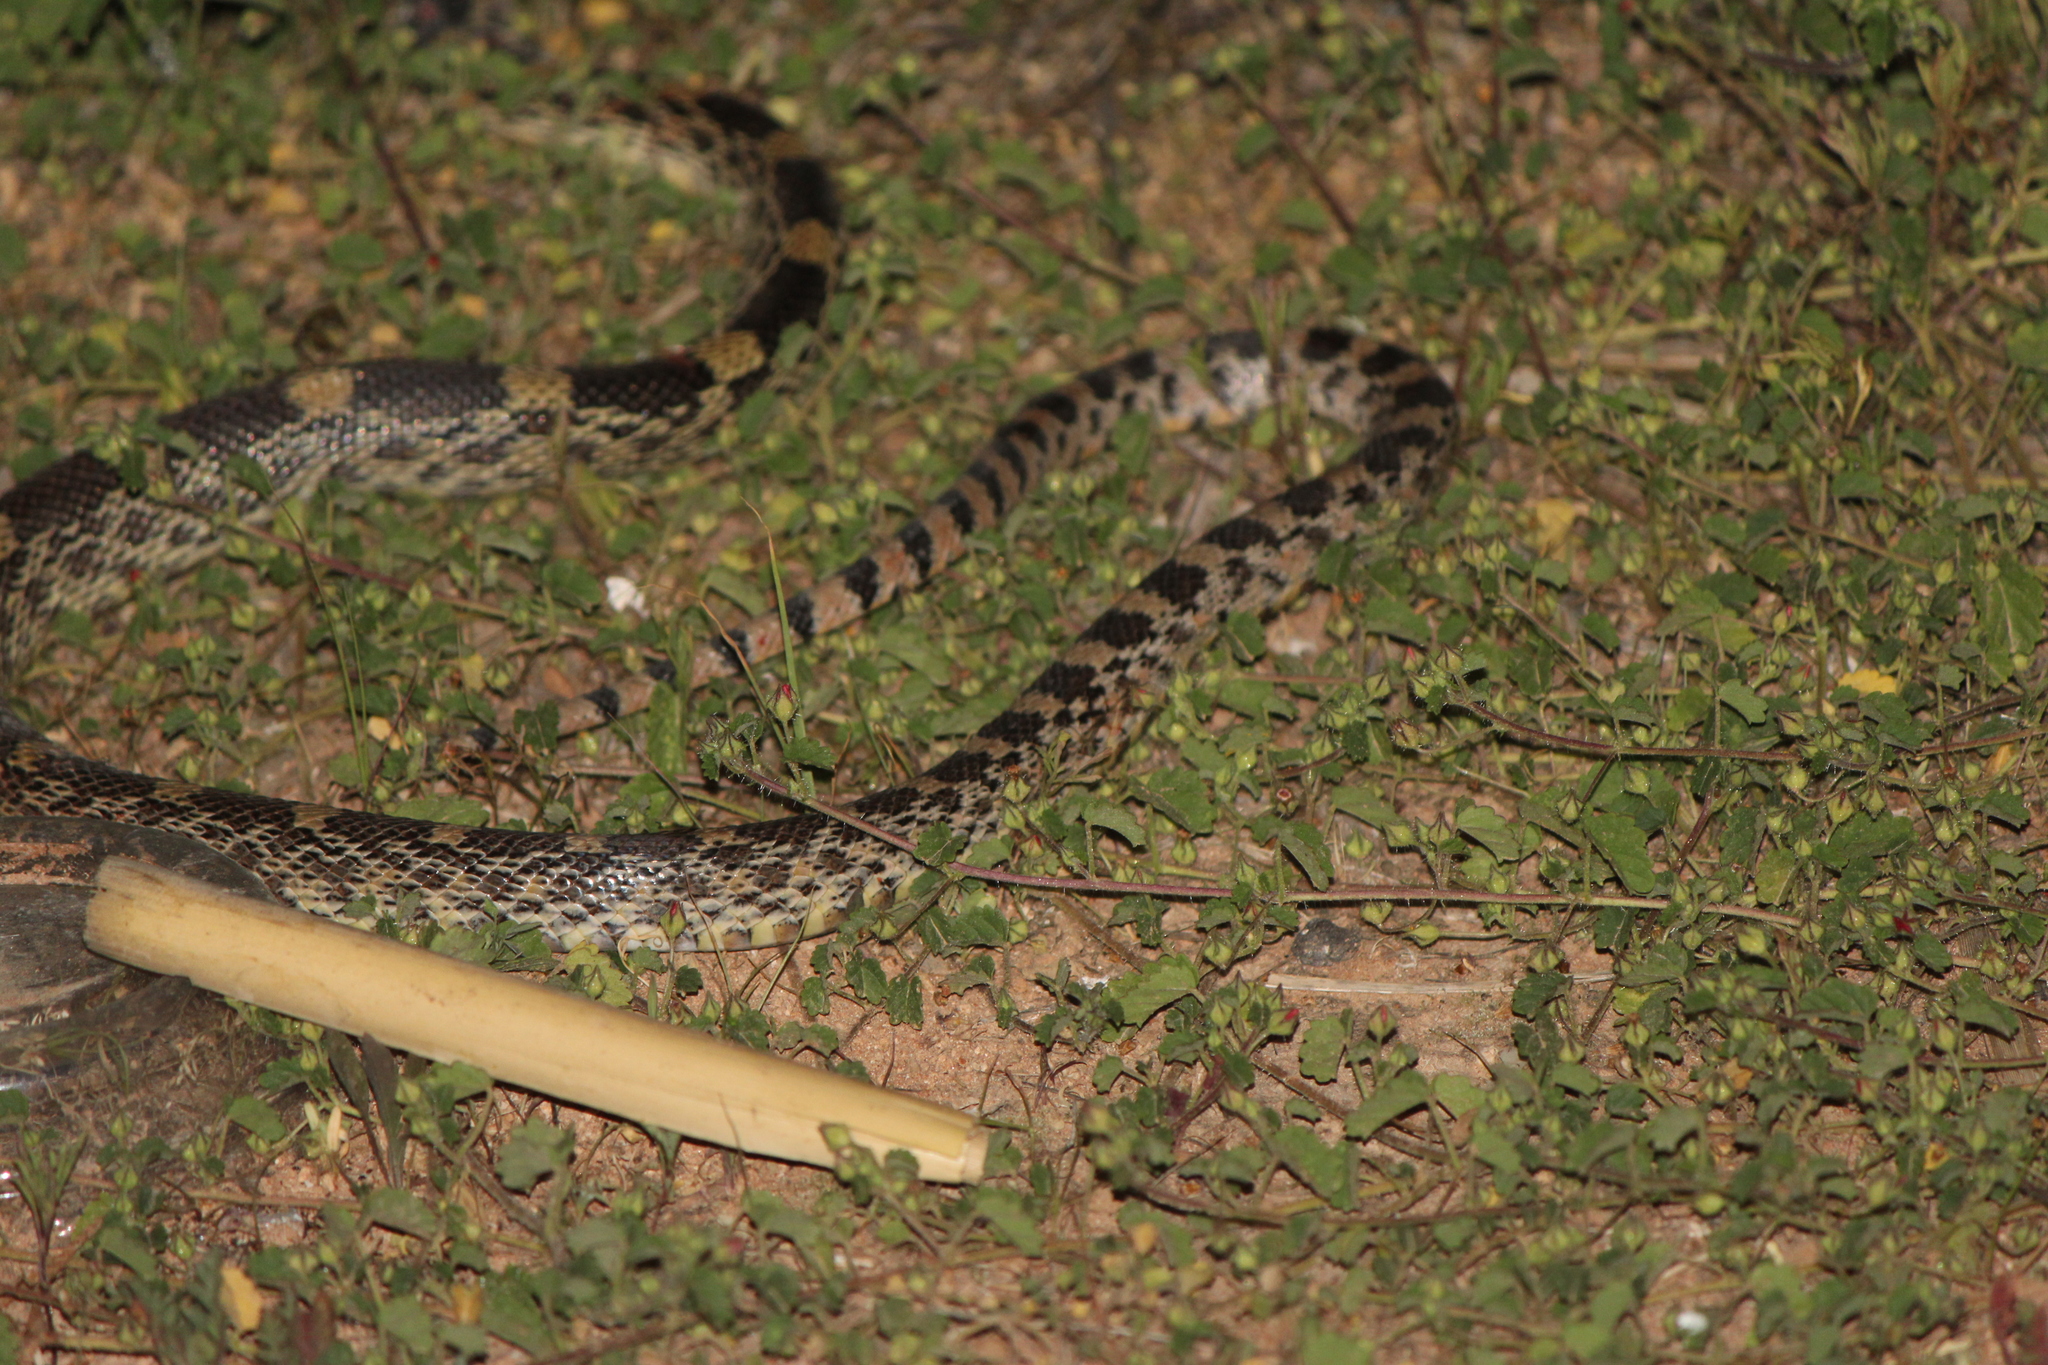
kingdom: Animalia
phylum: Chordata
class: Squamata
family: Colubridae
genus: Pituophis
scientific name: Pituophis deppei
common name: Mexican bull snake
